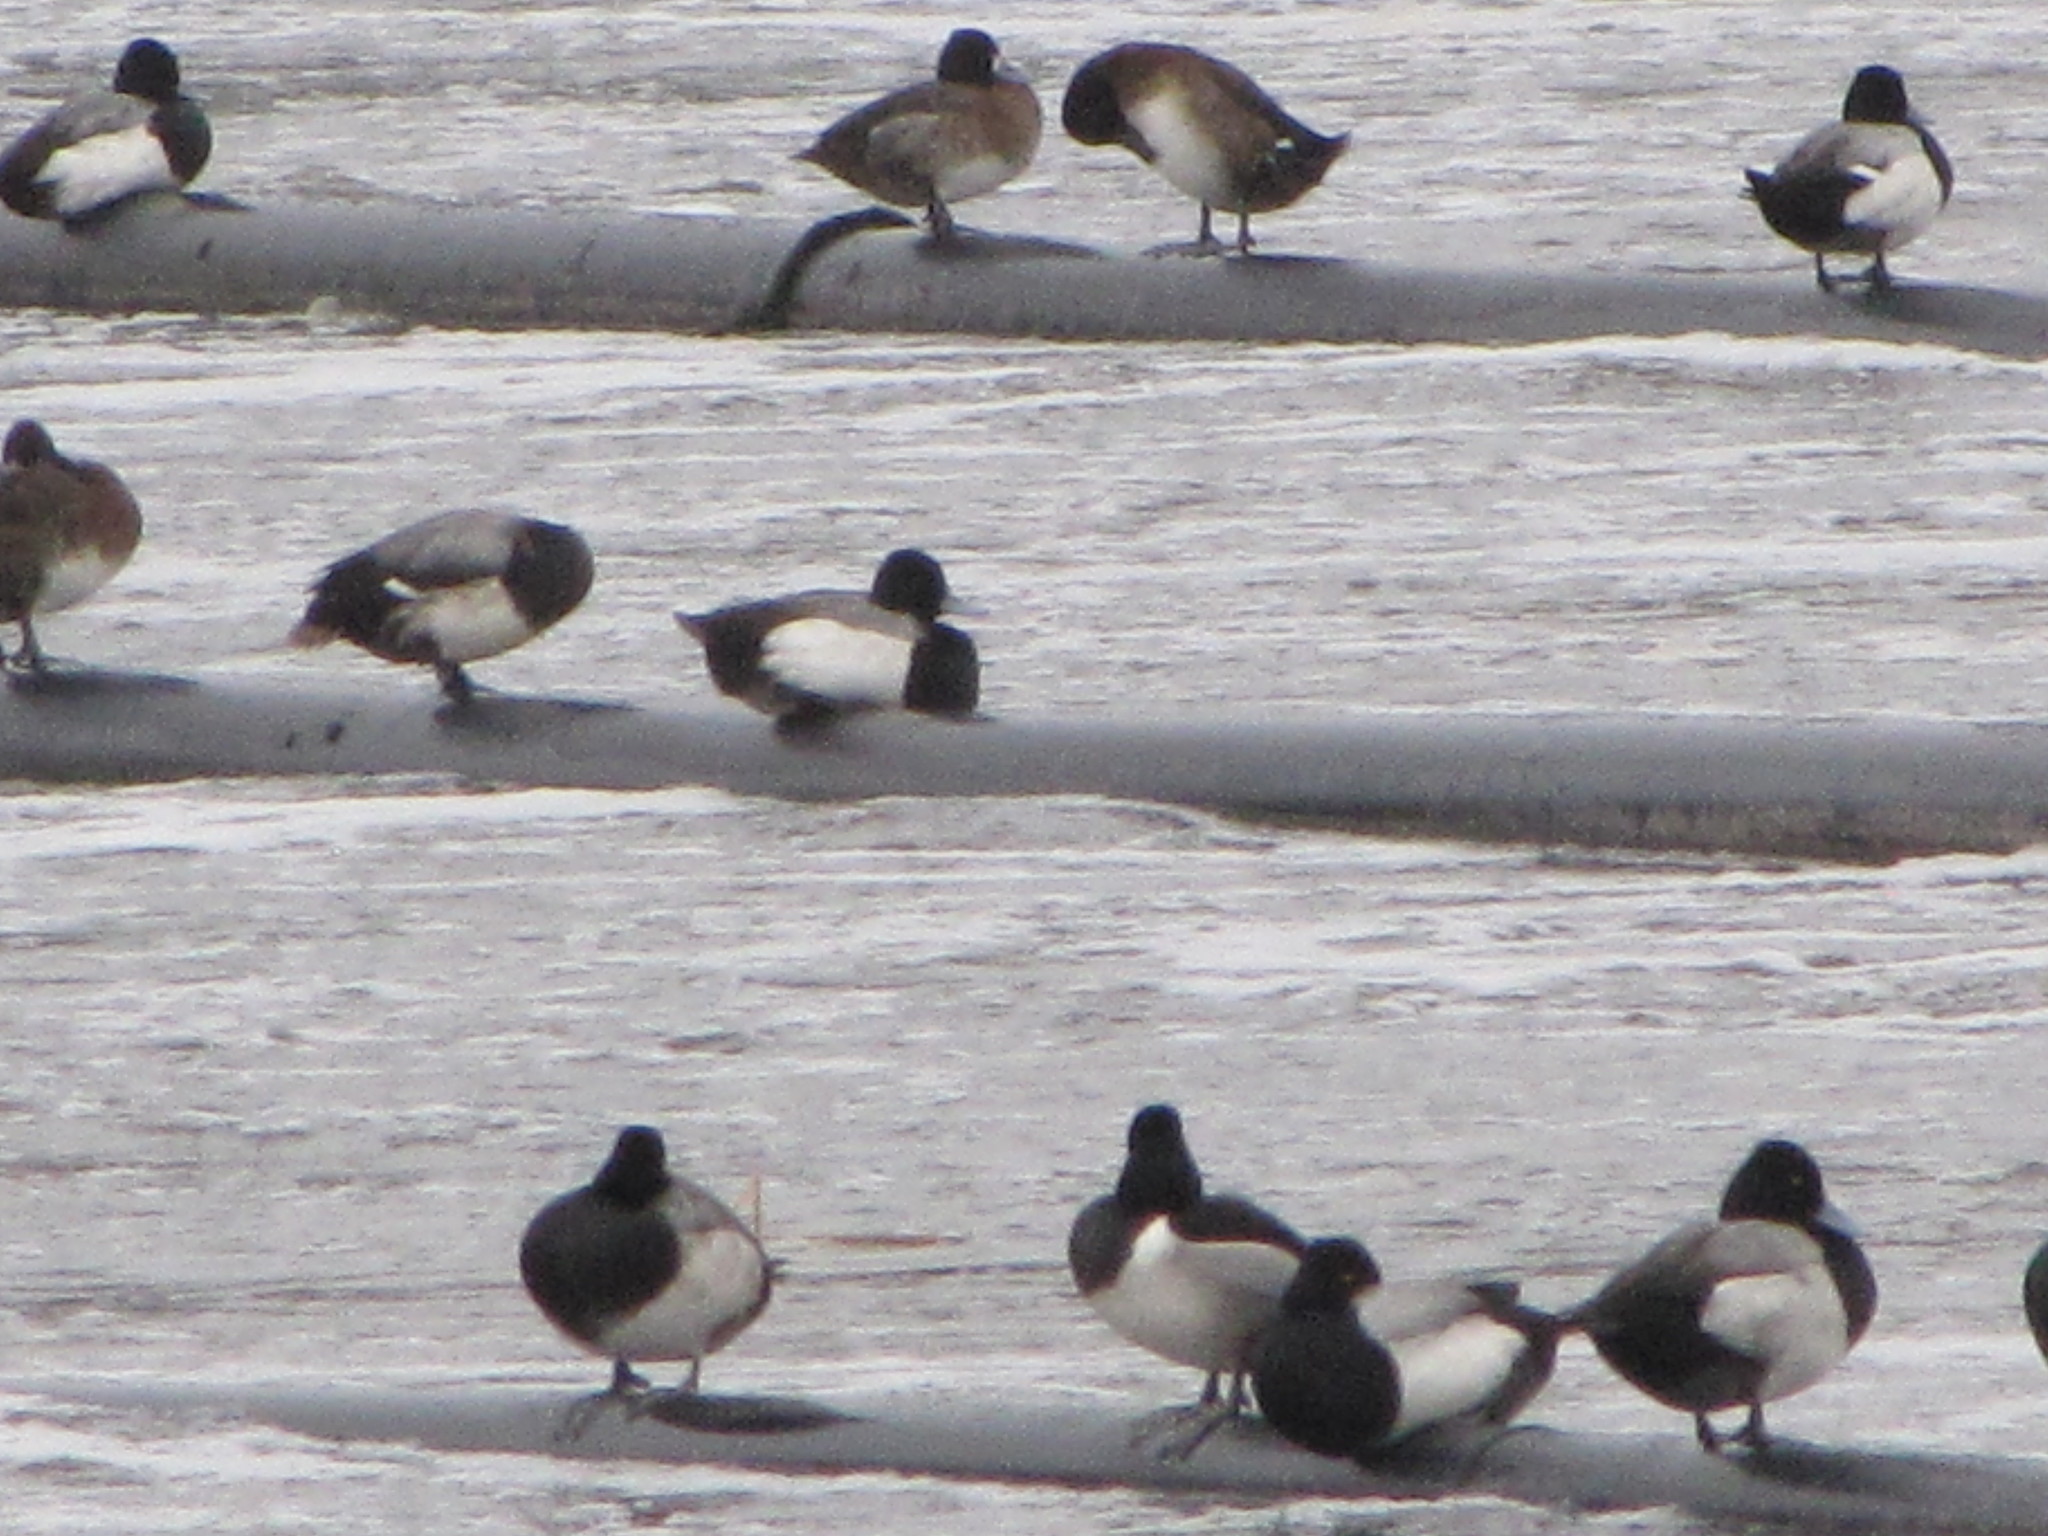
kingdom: Animalia
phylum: Chordata
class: Aves
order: Anseriformes
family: Anatidae
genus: Aythya
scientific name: Aythya affinis
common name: Lesser scaup
